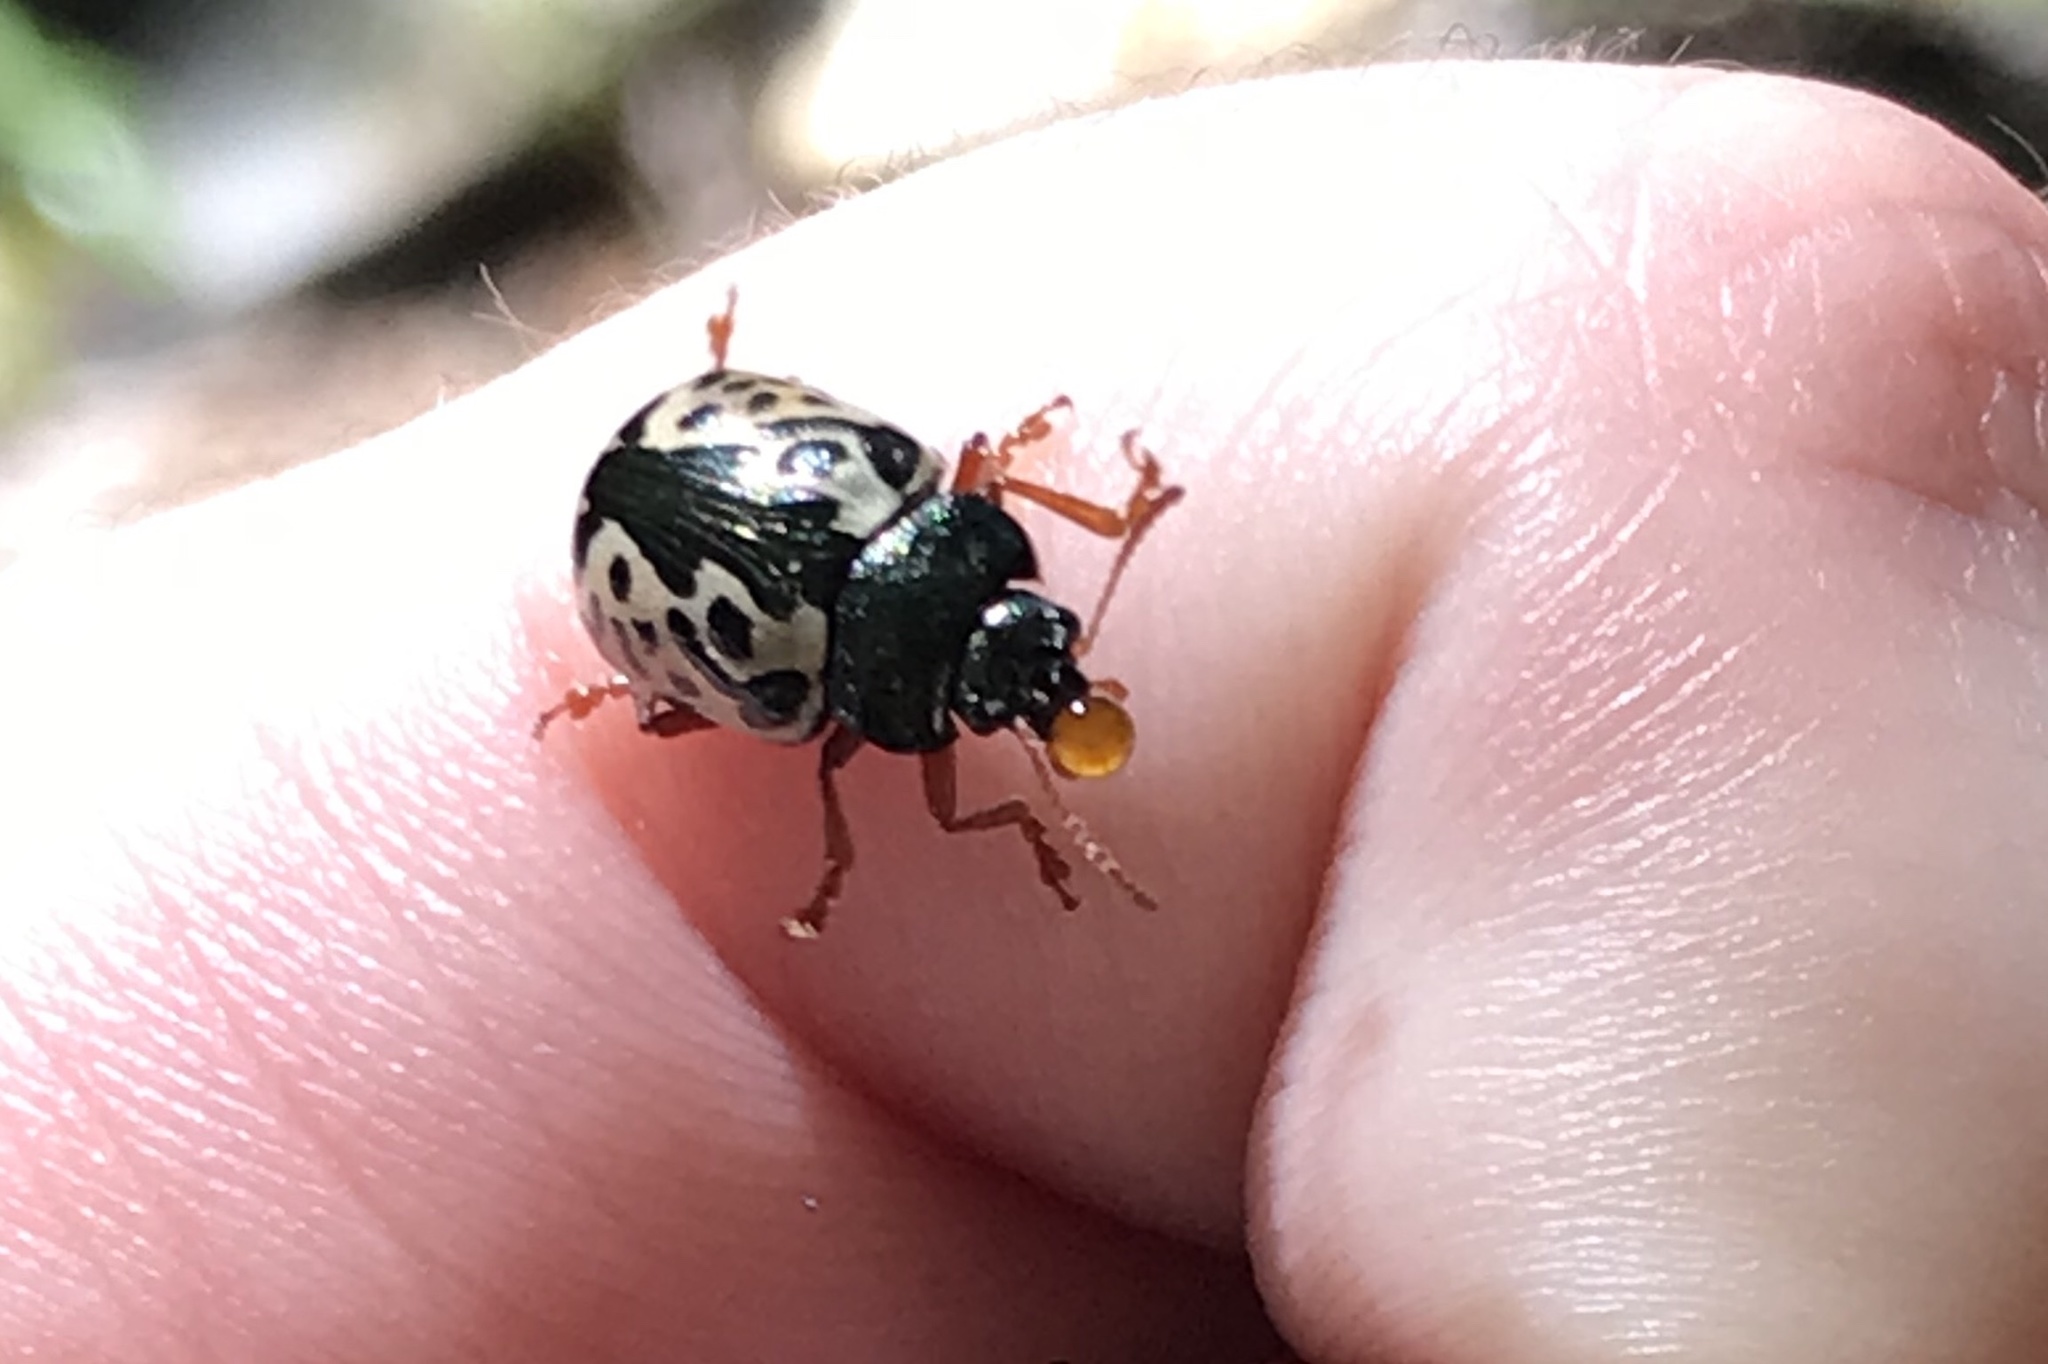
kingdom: Animalia
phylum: Arthropoda
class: Insecta
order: Coleoptera
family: Chrysomelidae
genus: Calligrapha
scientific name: Calligrapha confluens
